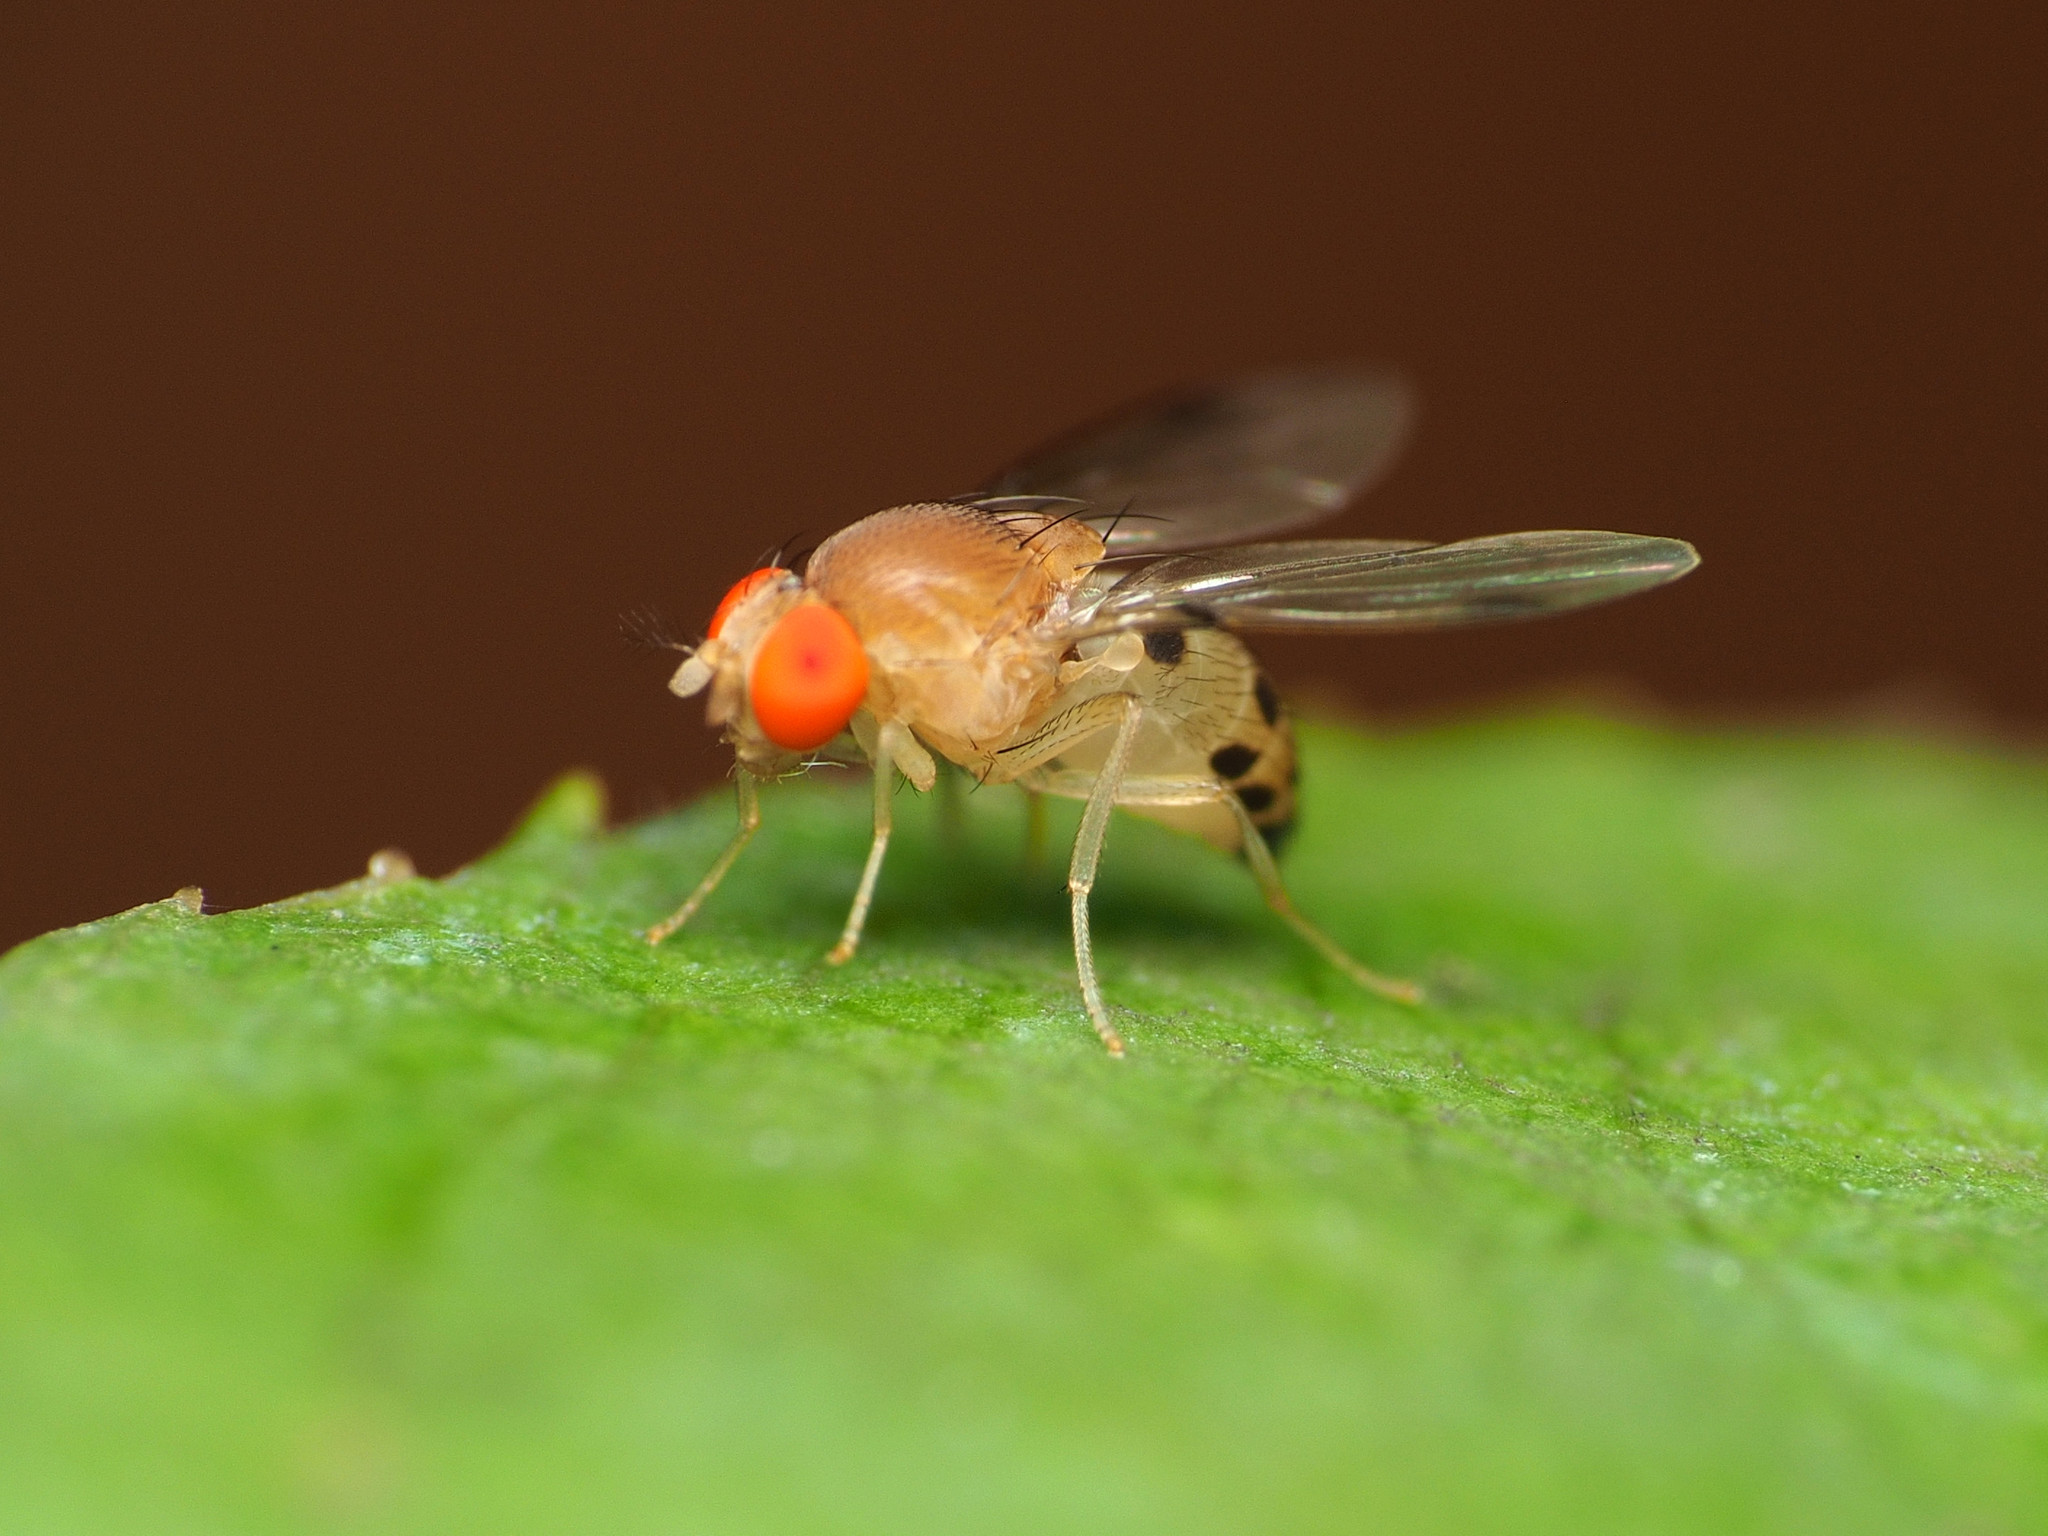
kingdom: Animalia
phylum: Arthropoda
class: Insecta
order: Diptera
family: Drosophilidae
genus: Leucophenga
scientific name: Leucophenga varia
